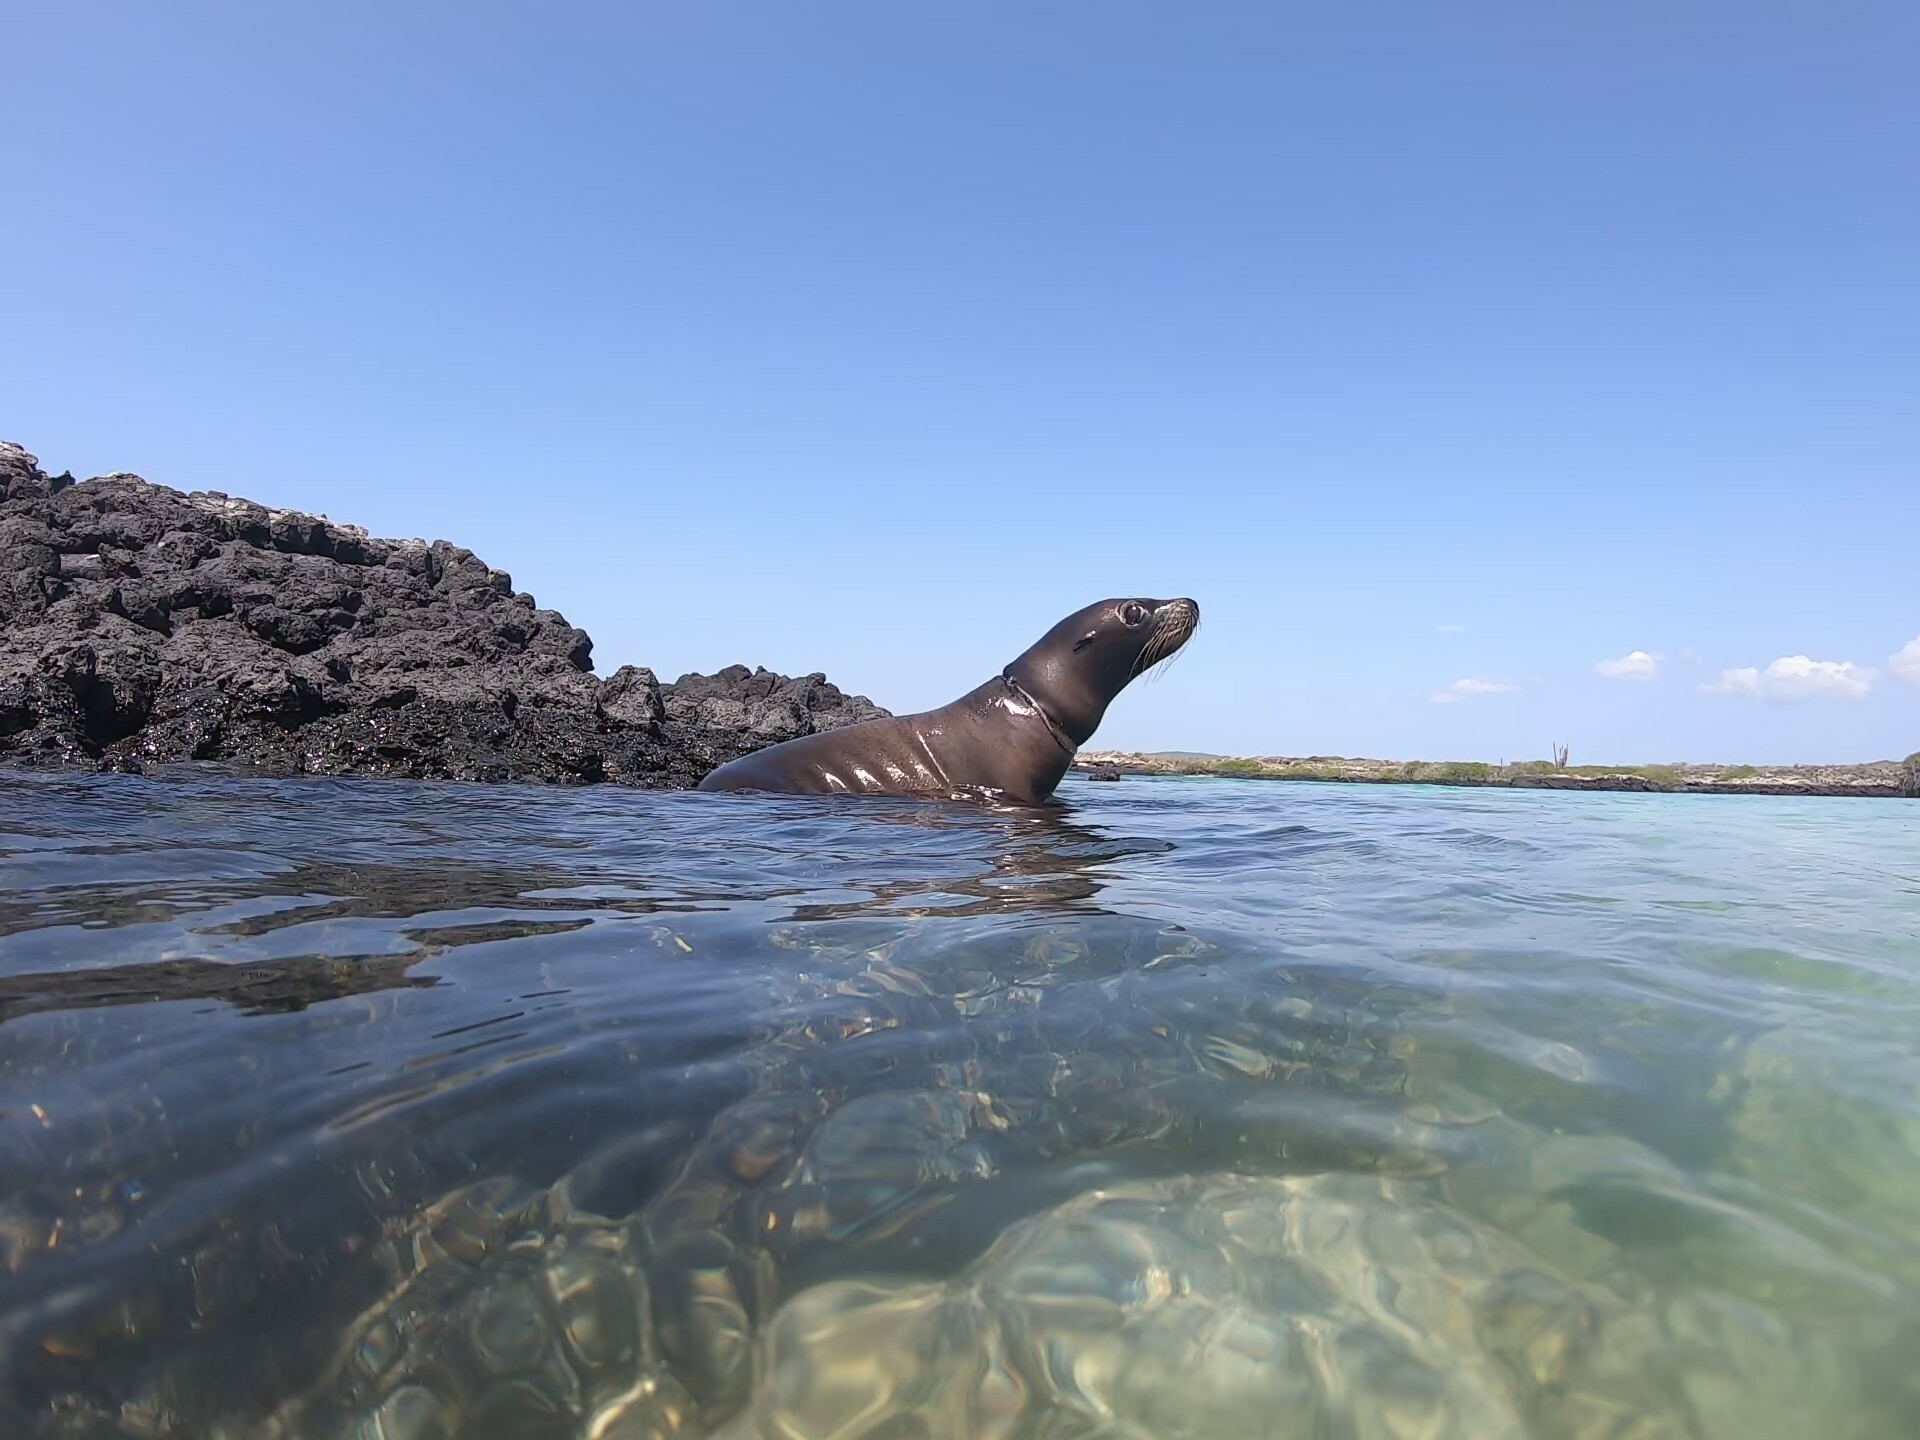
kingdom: Animalia
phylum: Chordata
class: Mammalia
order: Carnivora
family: Otariidae
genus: Zalophus
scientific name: Zalophus wollebaeki
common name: Galapagos sea lion
